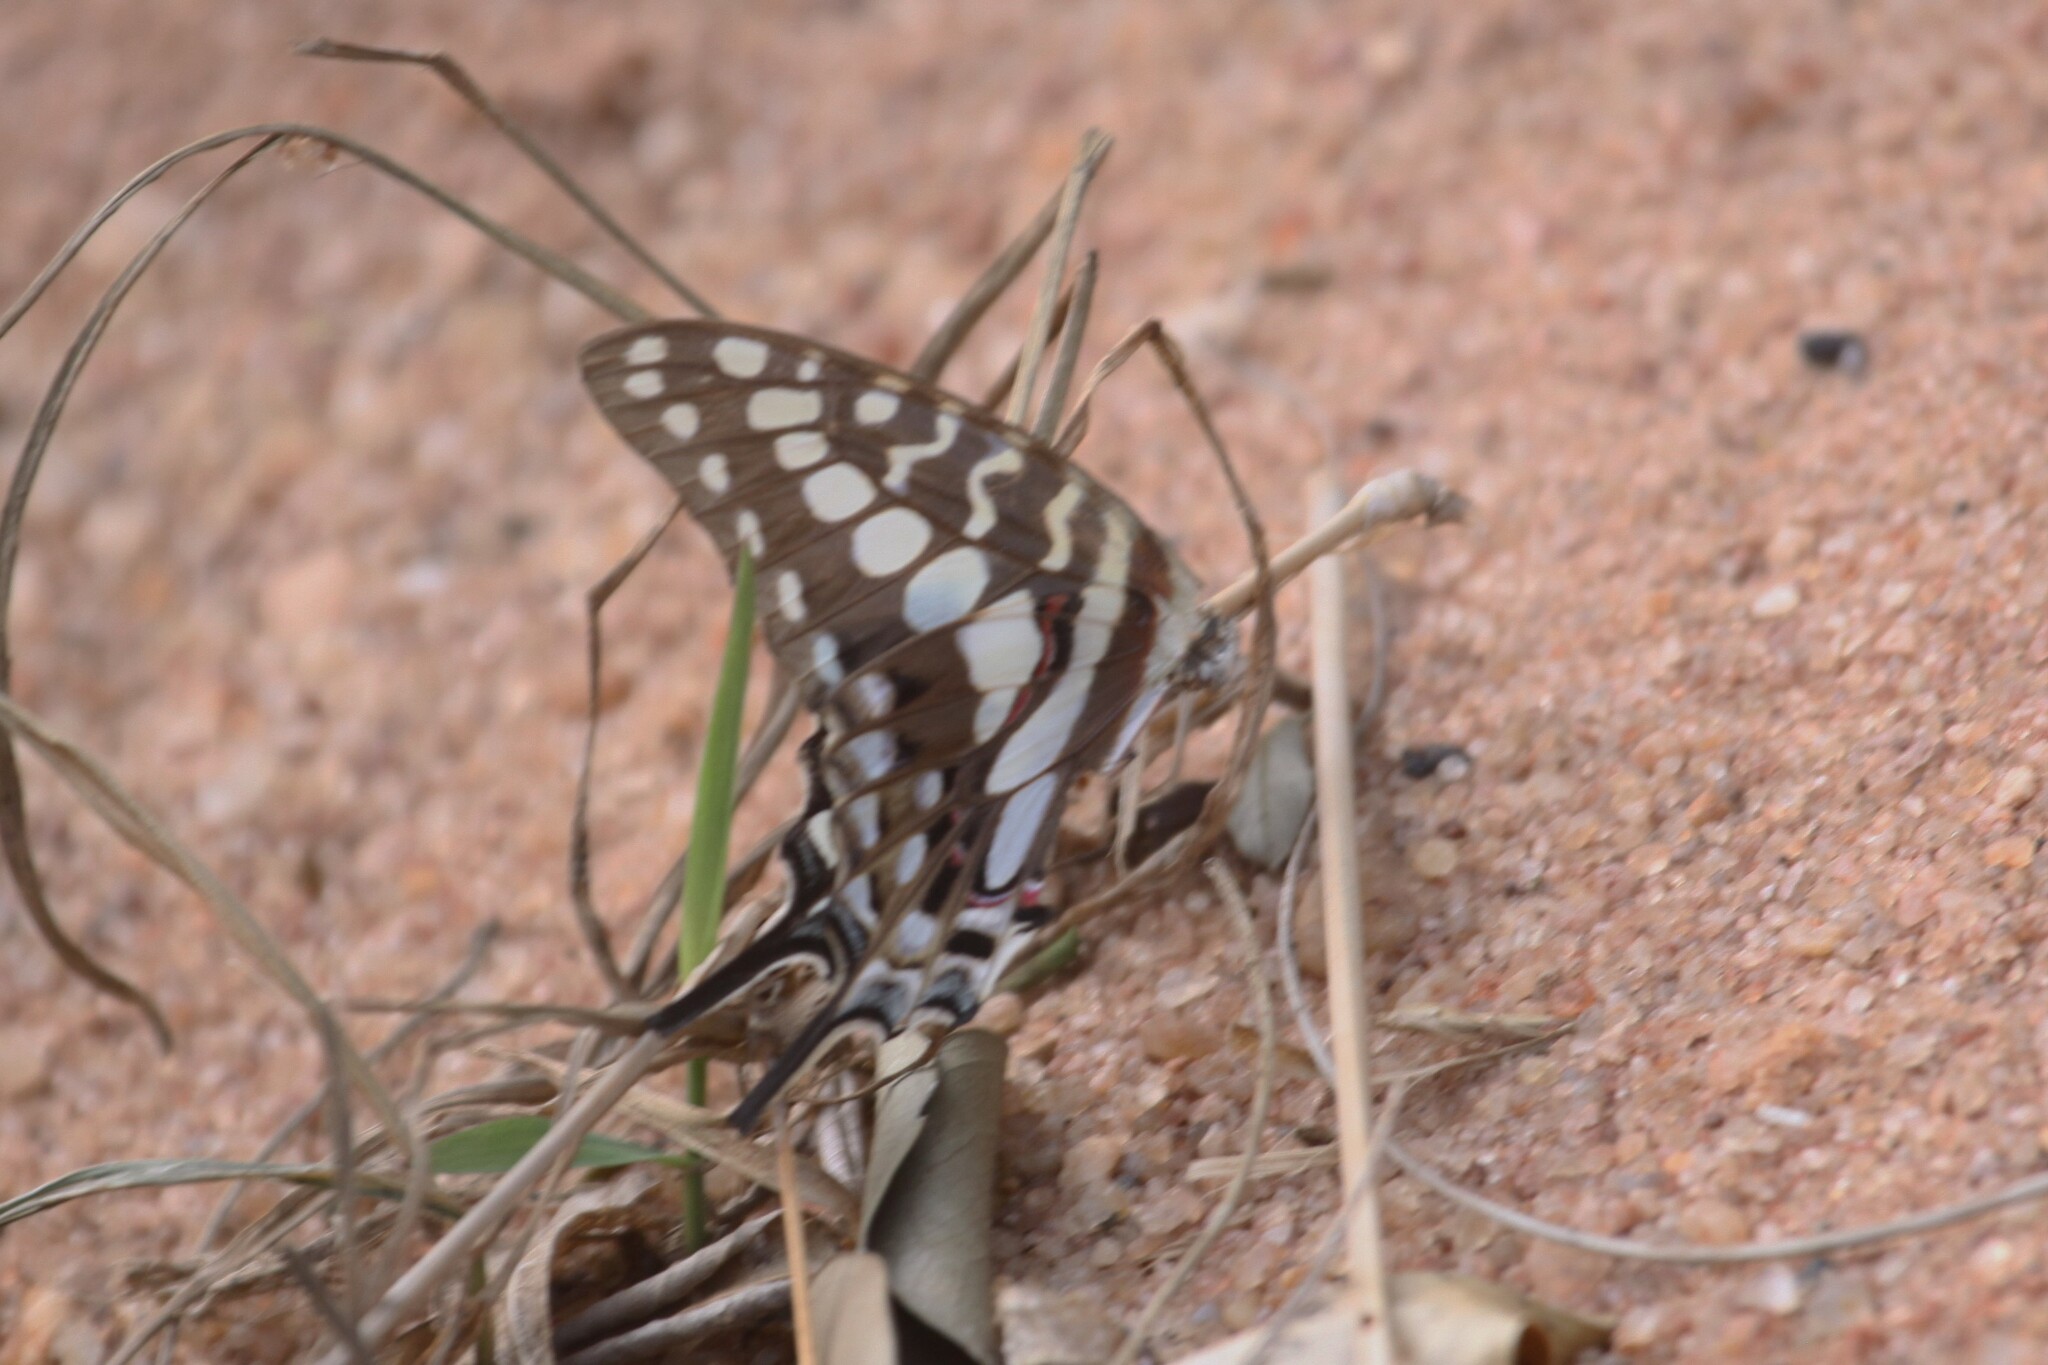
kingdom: Animalia
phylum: Arthropoda
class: Insecta
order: Lepidoptera
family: Papilionidae
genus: Graphium
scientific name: Graphium porthaon
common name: Coastal swordtail
